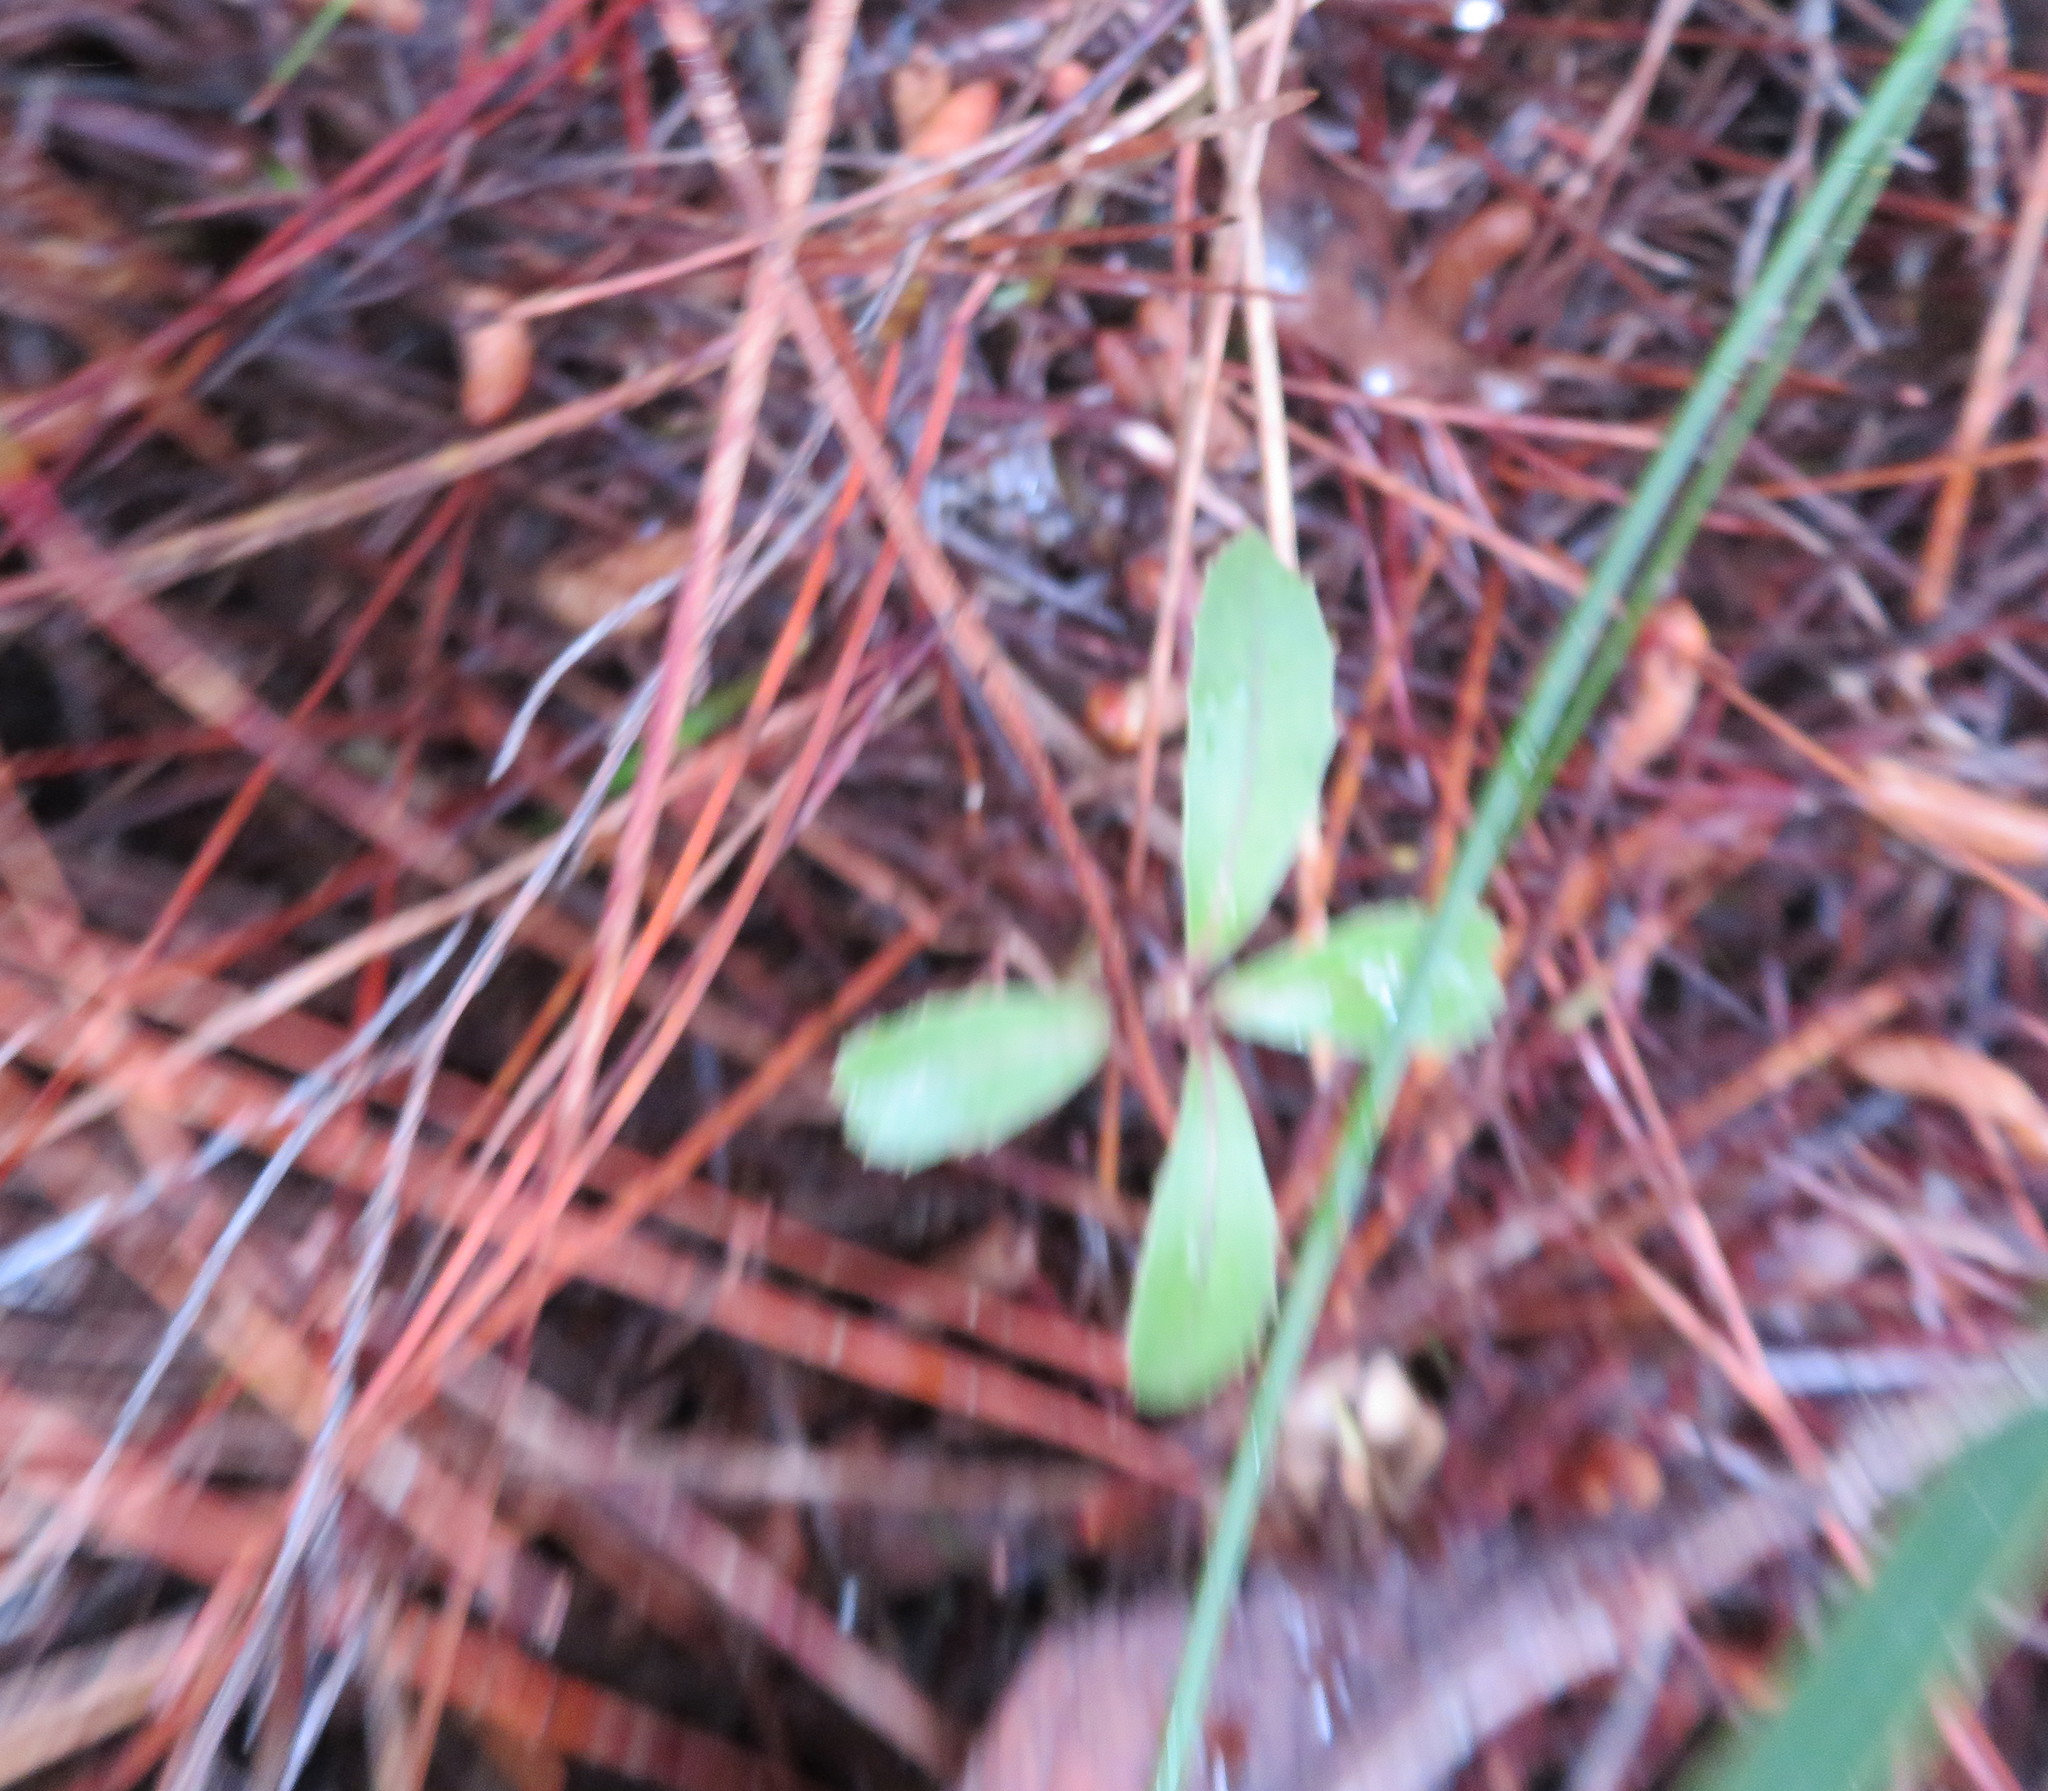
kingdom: Plantae
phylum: Tracheophyta
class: Magnoliopsida
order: Laurales
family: Monimiaceae
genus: Hedycarya
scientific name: Hedycarya arborea
